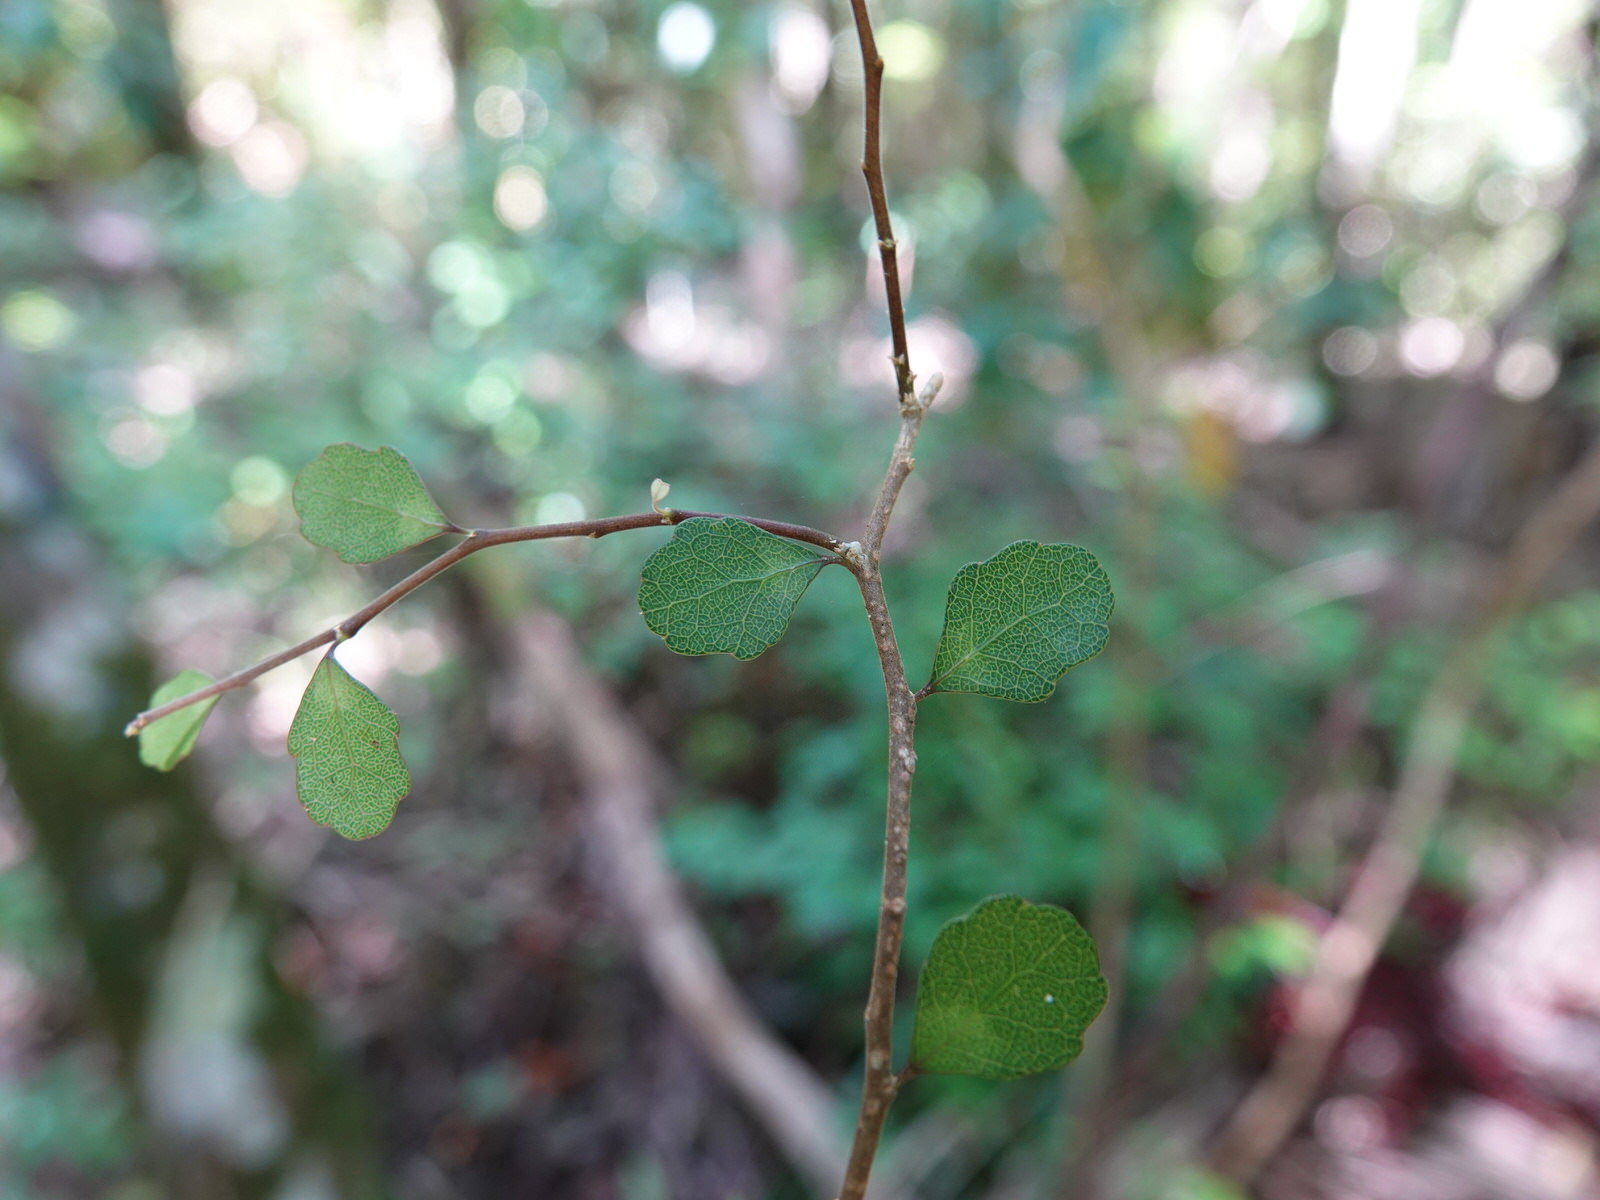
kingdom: Plantae
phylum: Tracheophyta
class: Magnoliopsida
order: Malpighiales
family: Violaceae
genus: Melicytus
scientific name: Melicytus micranthus
